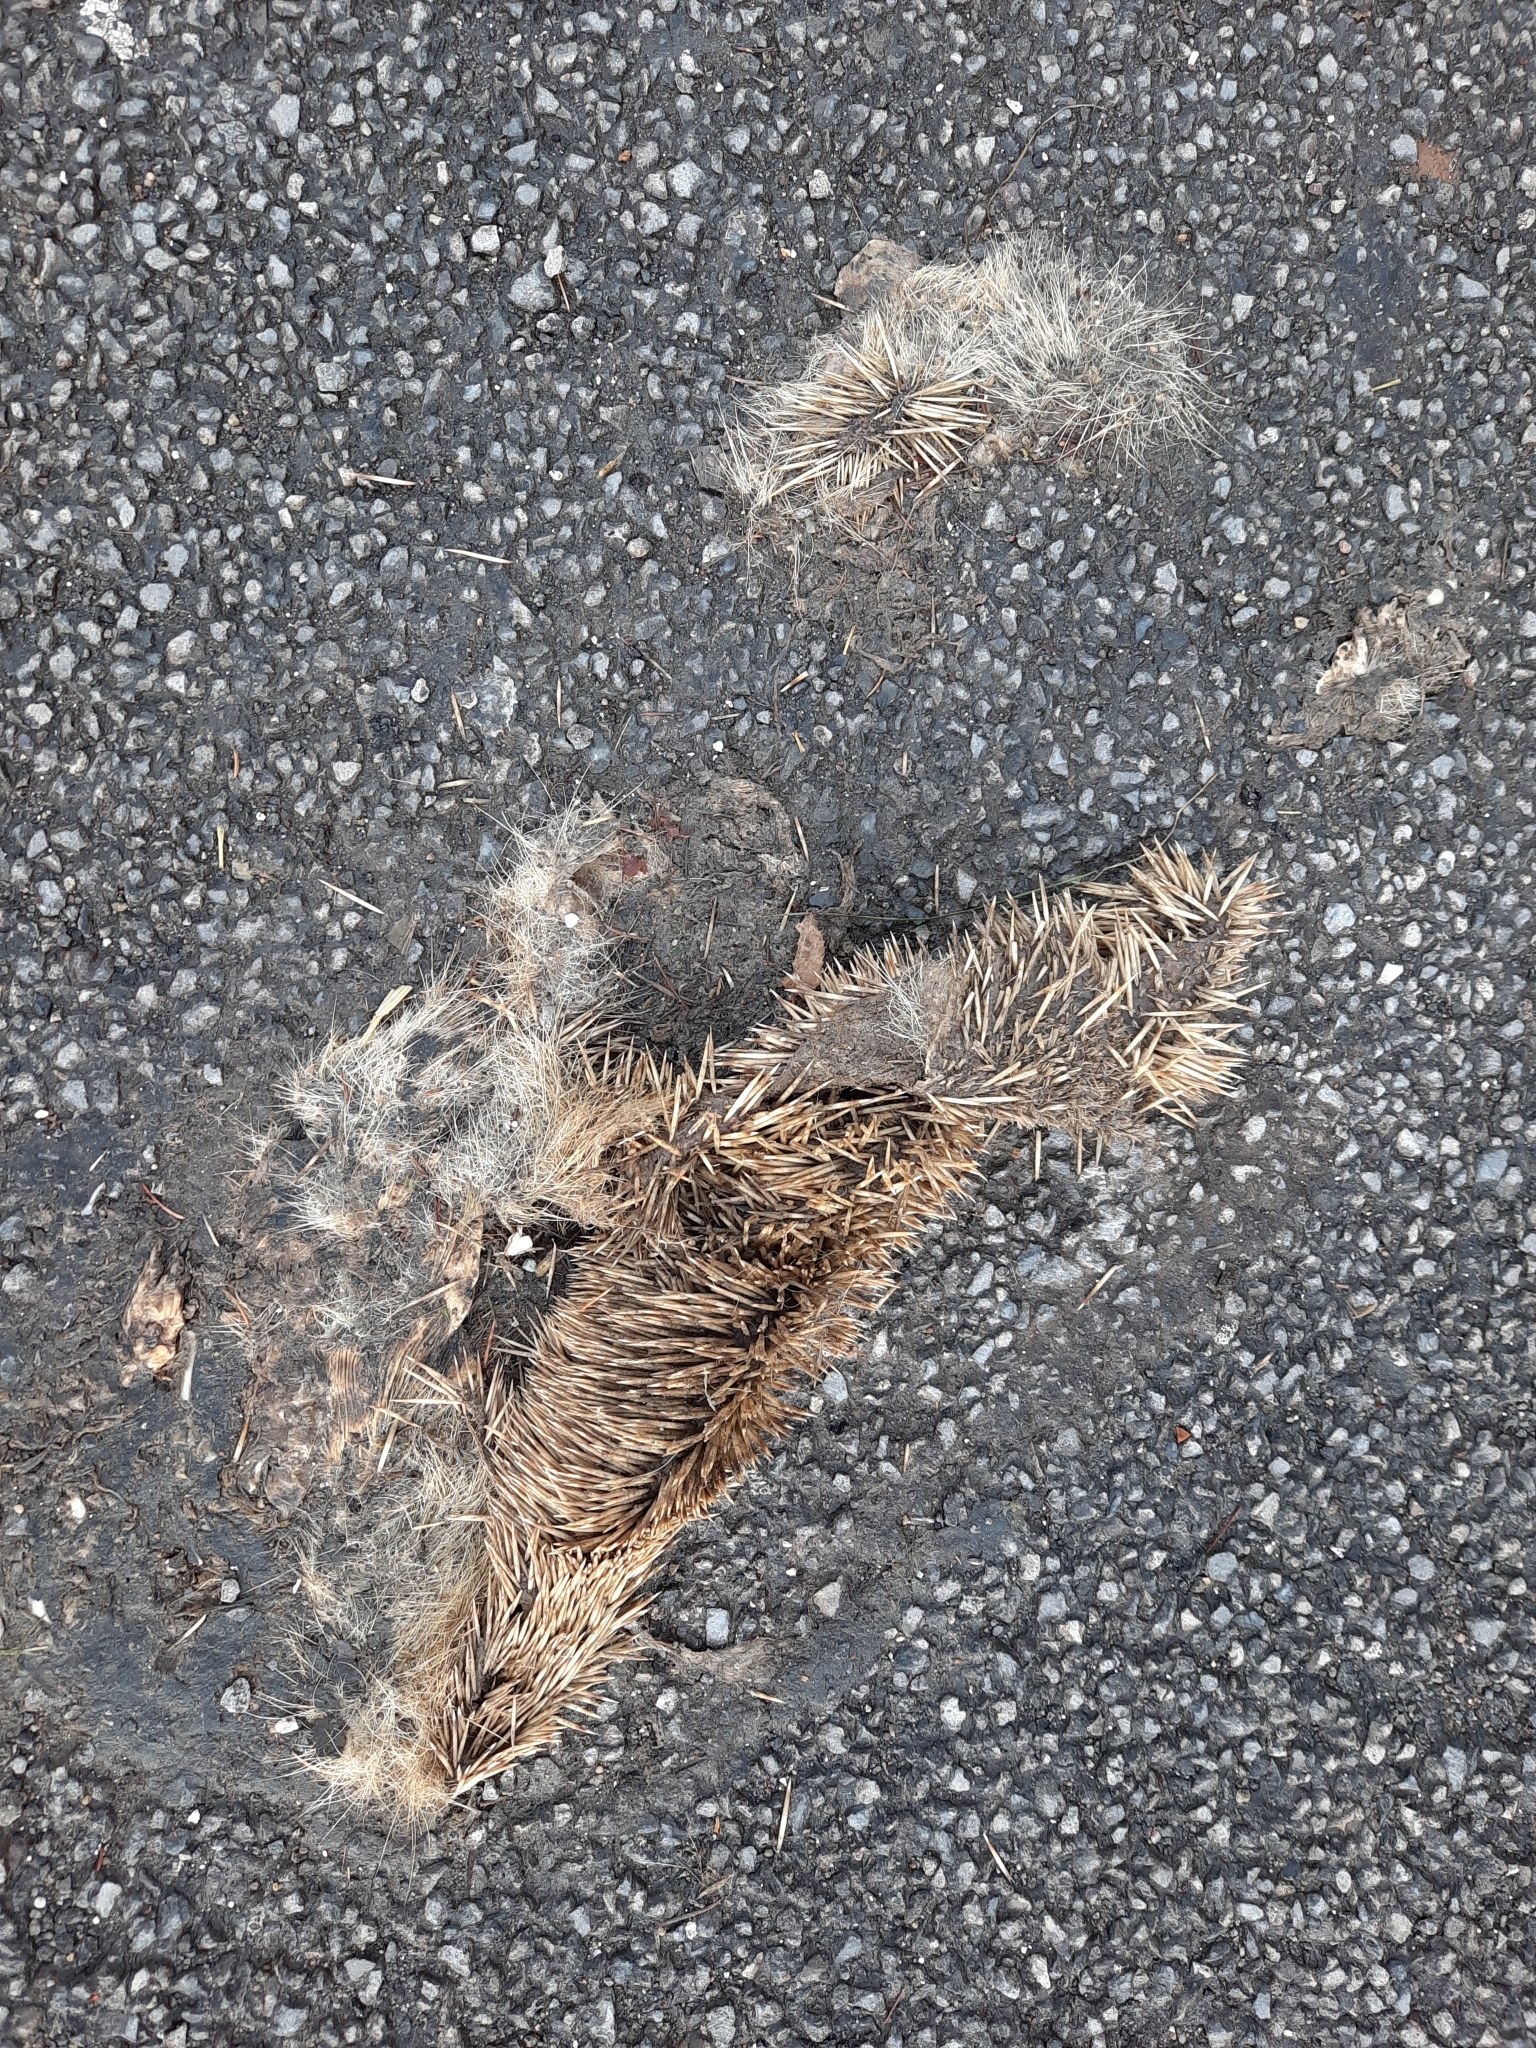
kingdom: Animalia
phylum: Chordata
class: Mammalia
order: Erinaceomorpha
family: Erinaceidae
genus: Erinaceus
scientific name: Erinaceus europaeus
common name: West european hedgehog
